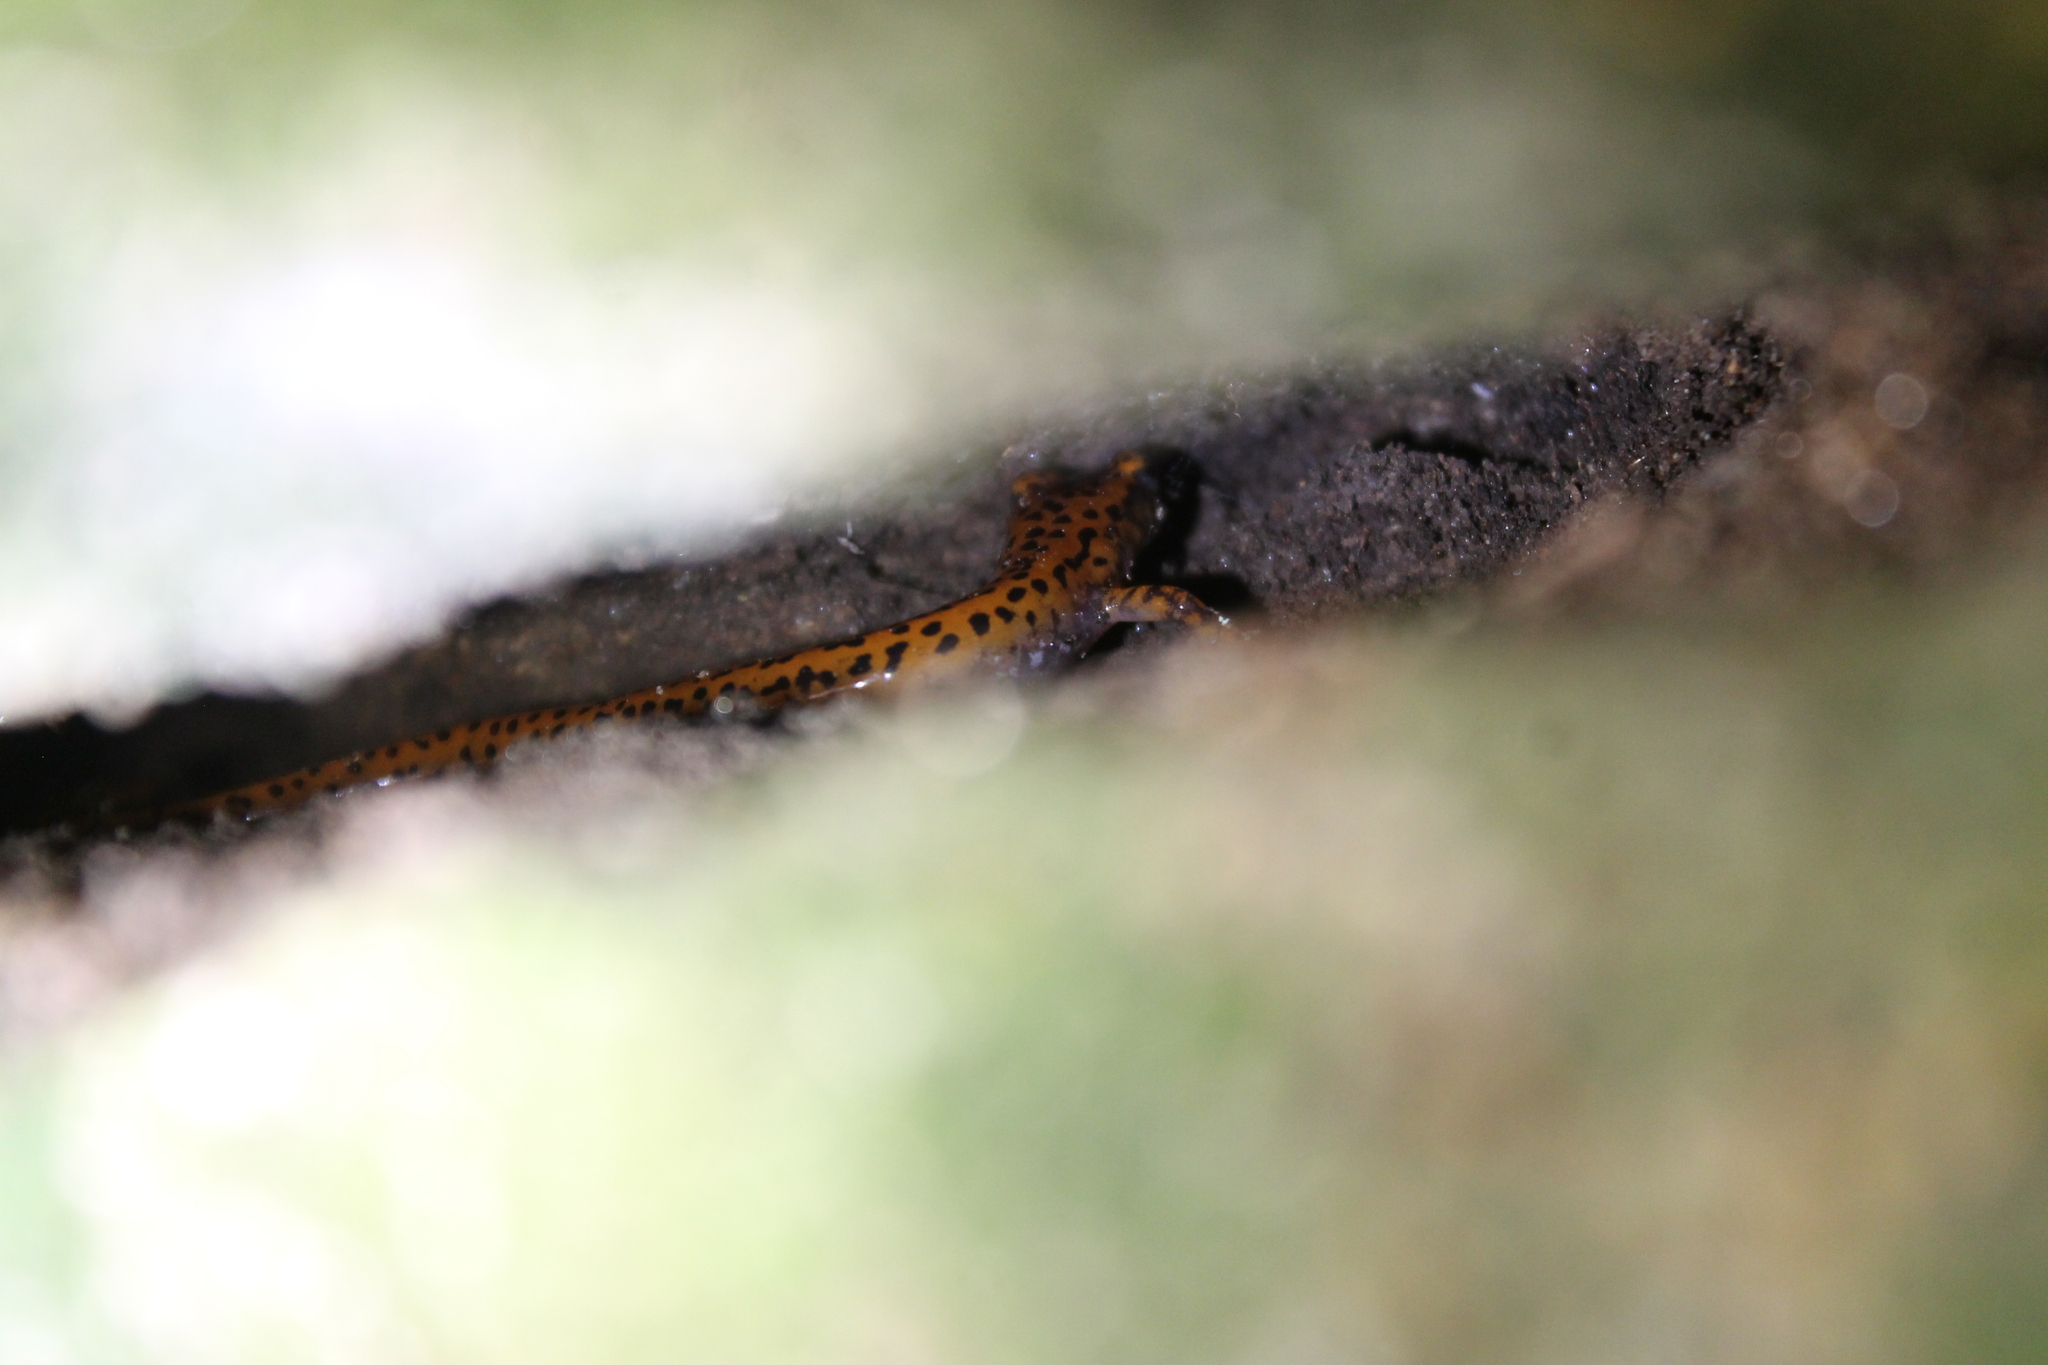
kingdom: Animalia
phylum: Chordata
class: Amphibia
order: Caudata
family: Plethodontidae
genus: Eurycea
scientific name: Eurycea lucifuga
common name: Cave salamander
